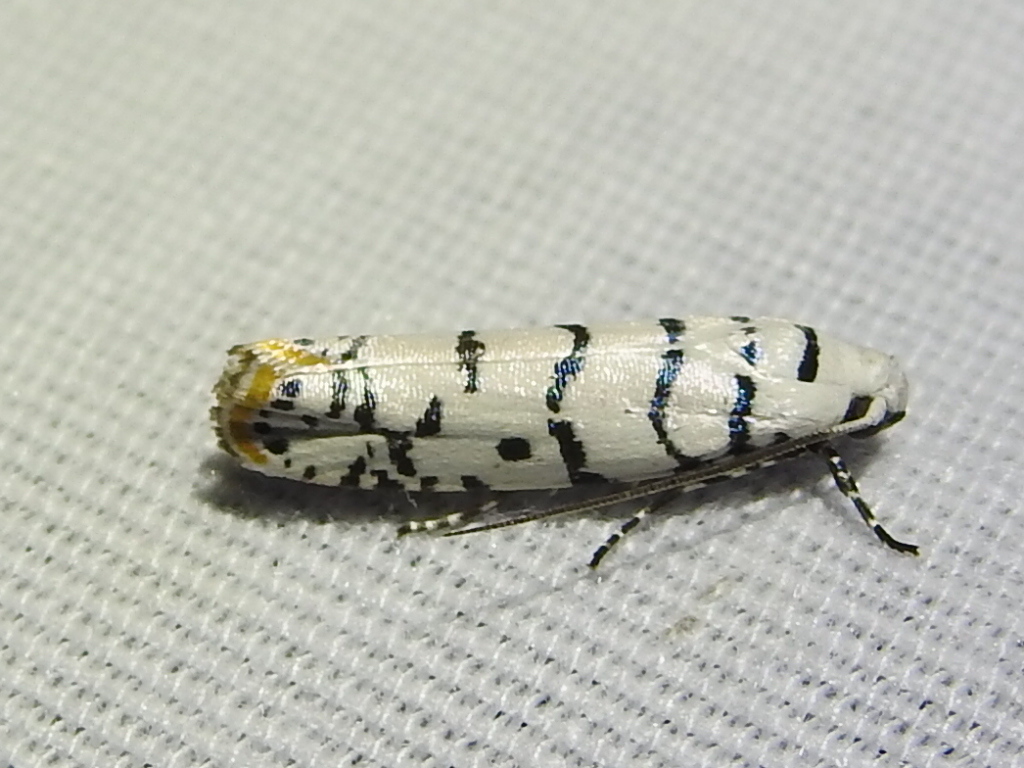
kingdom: Animalia
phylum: Arthropoda
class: Insecta
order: Lepidoptera
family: Ethmiidae
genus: Ethmia
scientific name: Ethmia delliella
